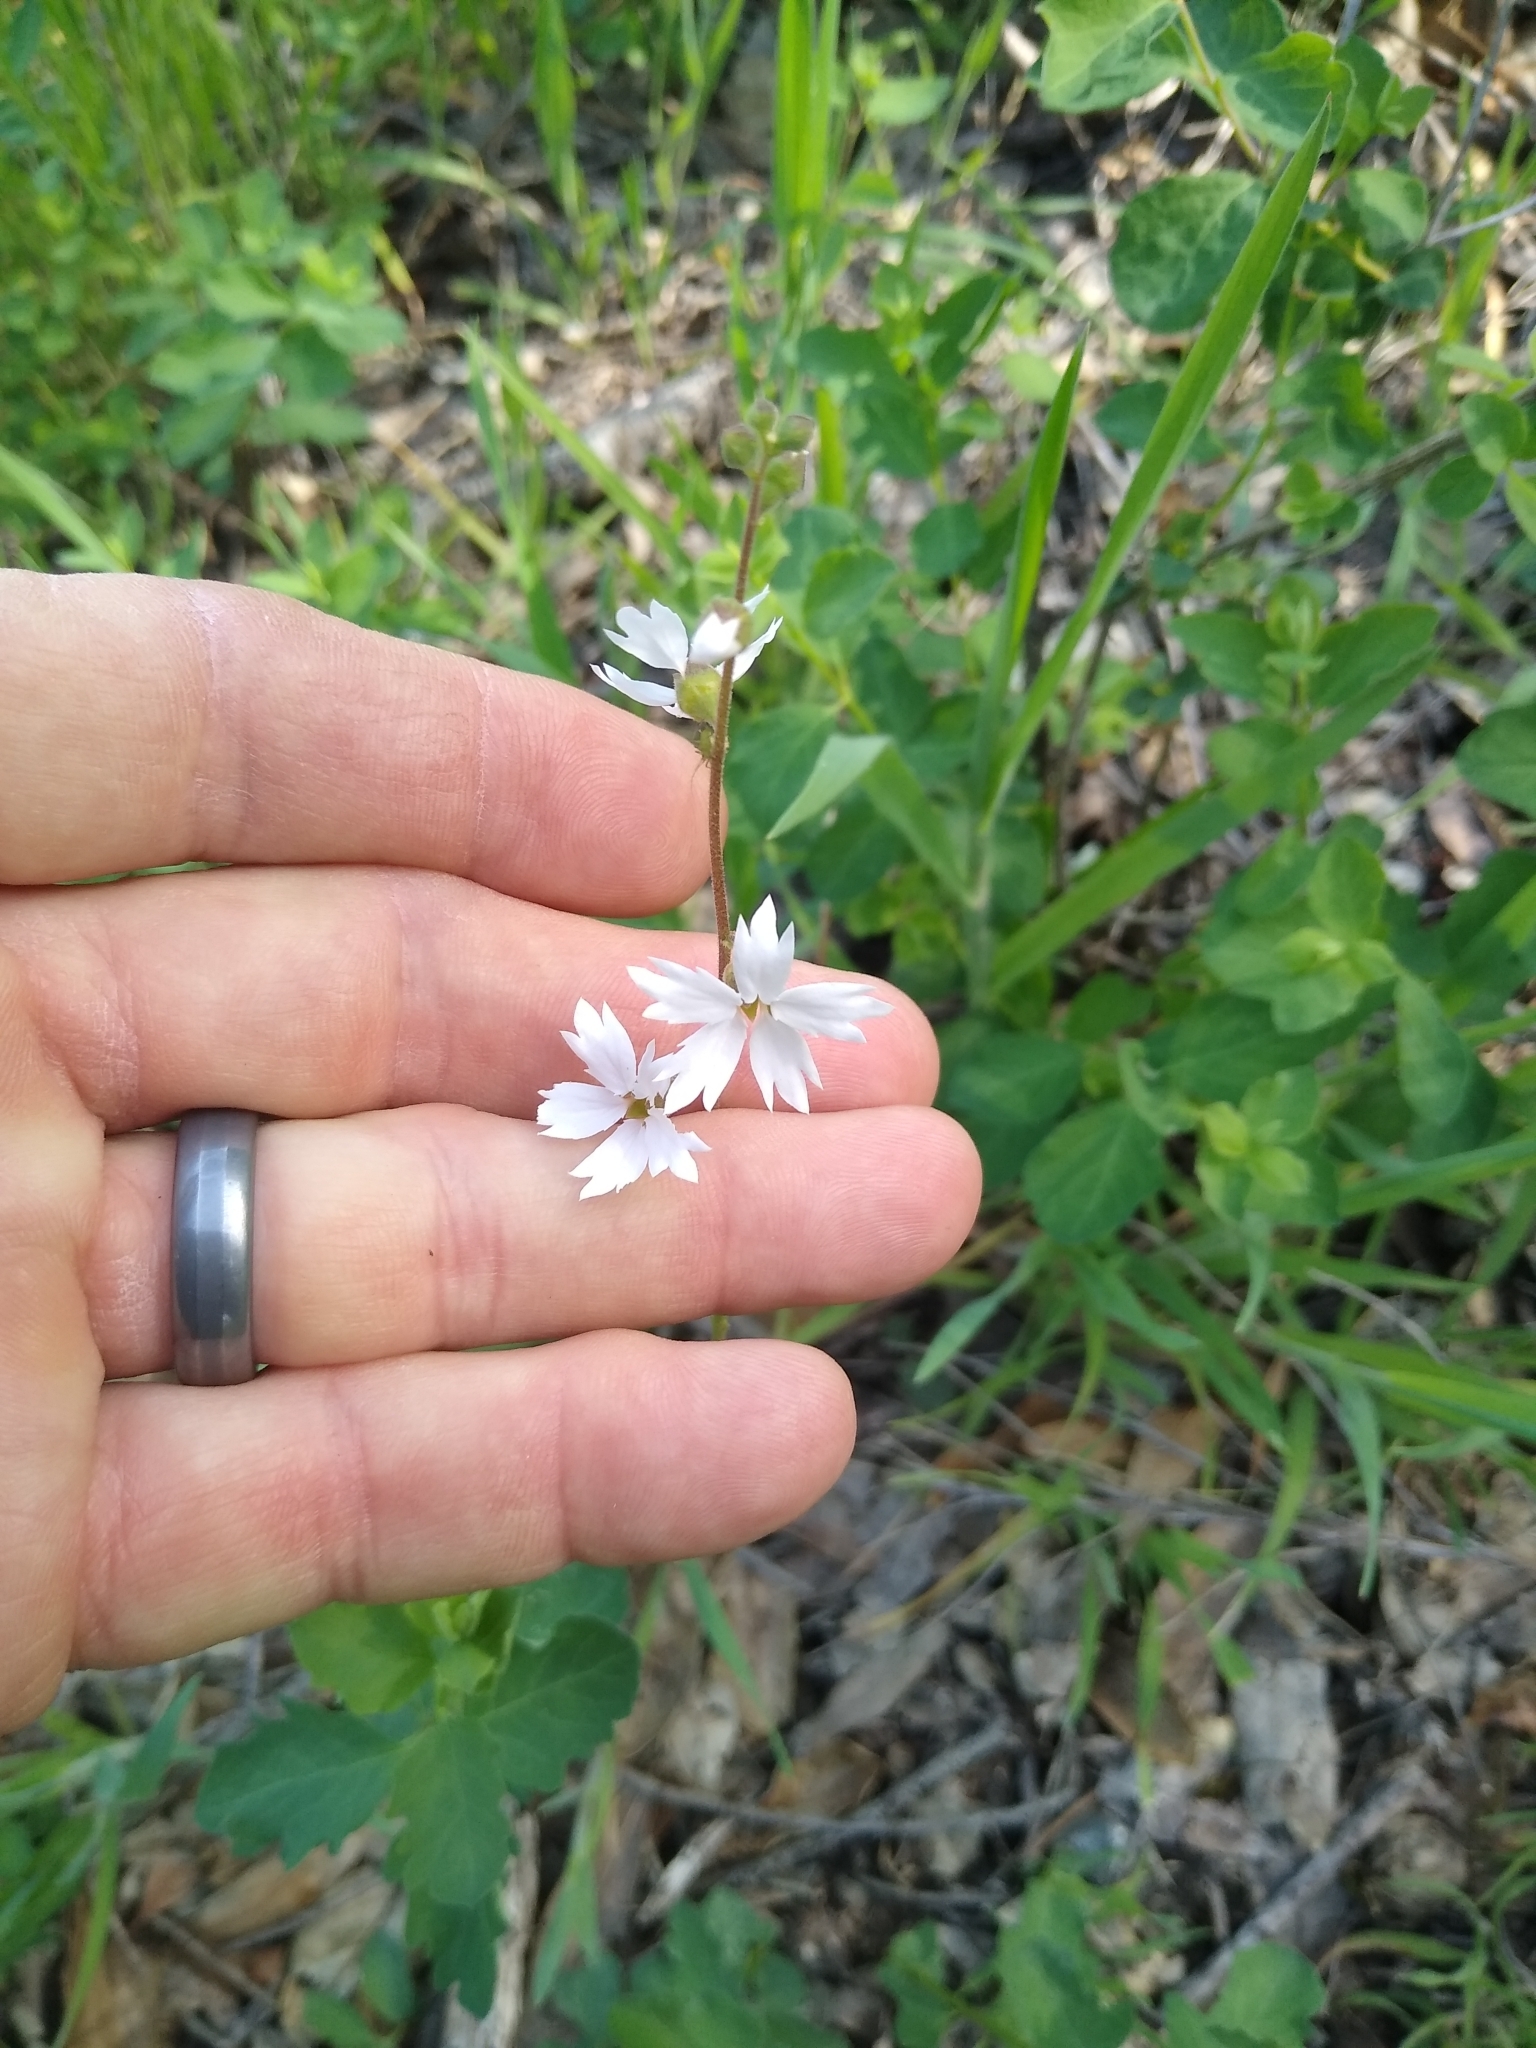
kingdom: Plantae
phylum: Tracheophyta
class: Magnoliopsida
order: Saxifragales
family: Saxifragaceae
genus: Lithophragma
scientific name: Lithophragma affine
